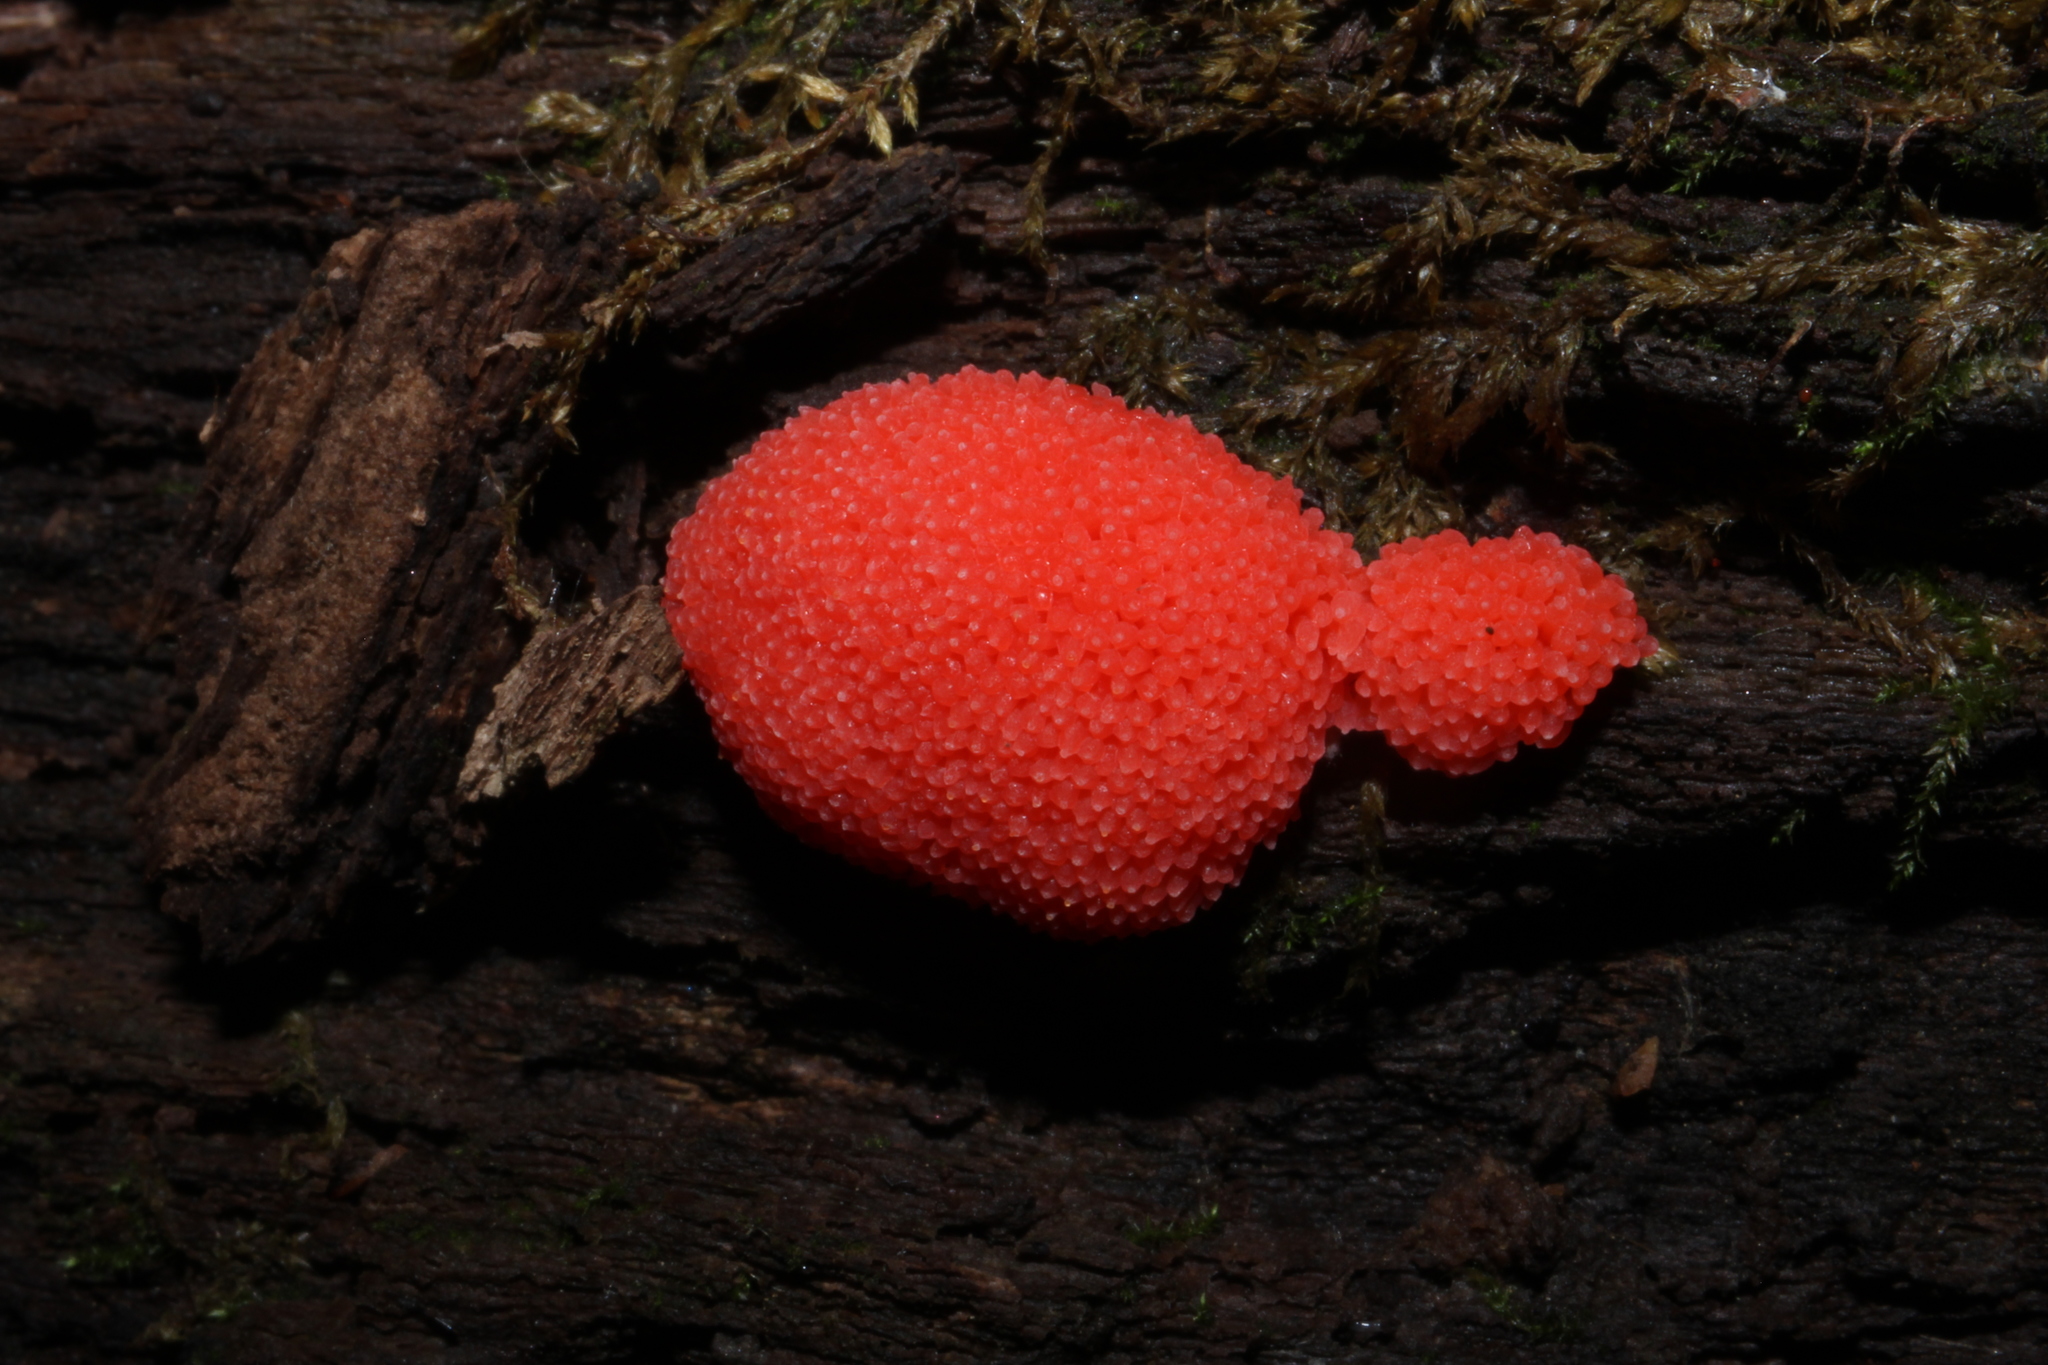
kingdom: Protozoa
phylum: Mycetozoa
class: Myxomycetes
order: Cribrariales
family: Tubiferaceae
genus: Tubifera
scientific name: Tubifera ferruginosa
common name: Red raspberry slime mold
